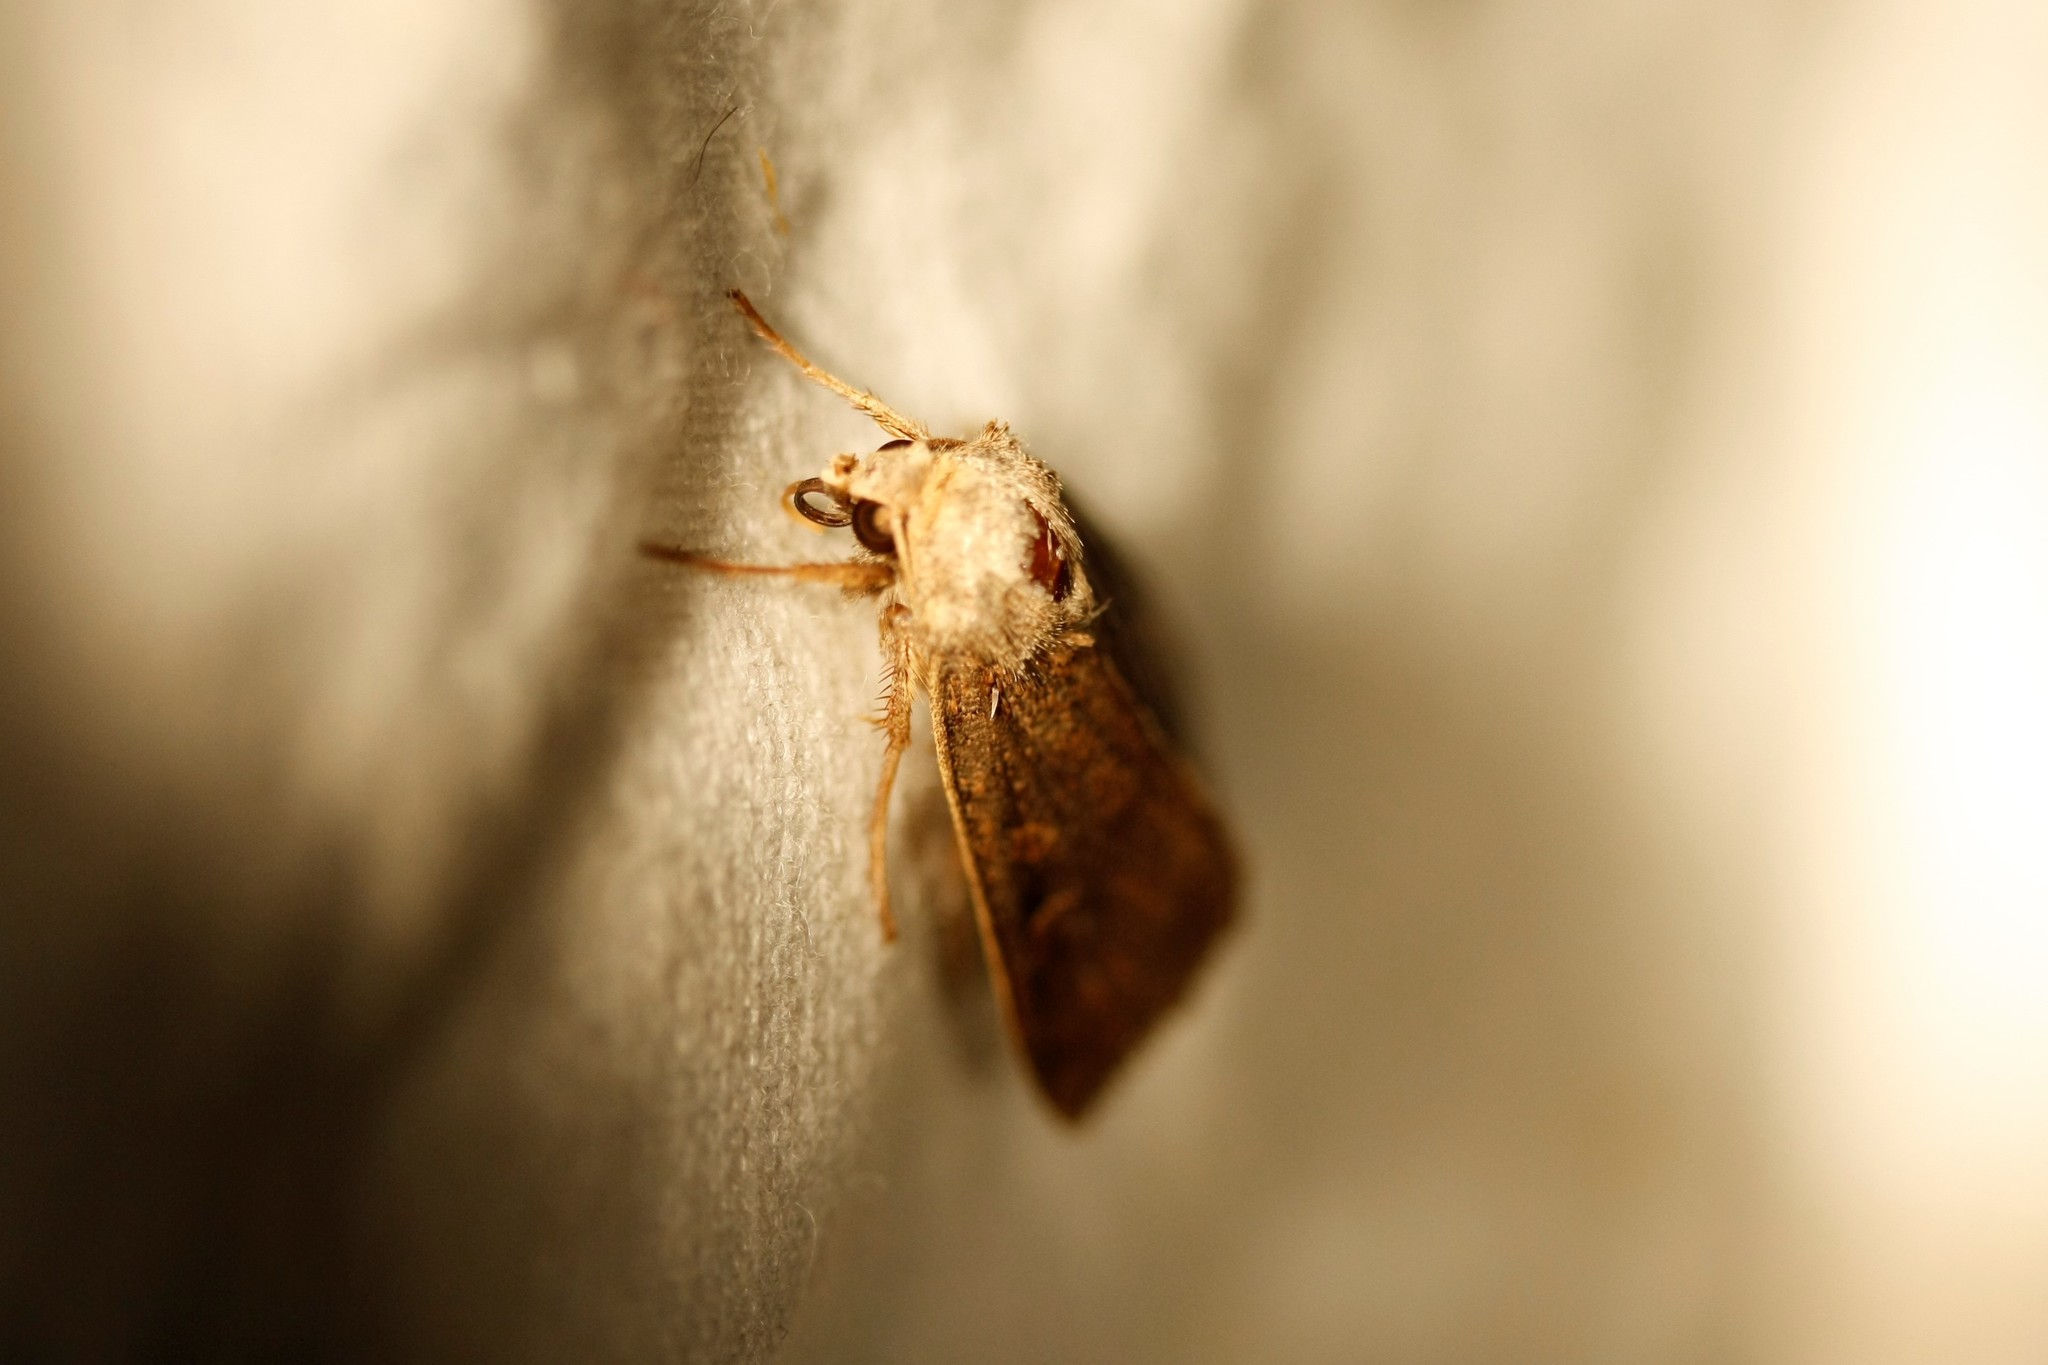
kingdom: Animalia
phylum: Arthropoda
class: Insecta
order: Lepidoptera
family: Noctuidae
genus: Xestia
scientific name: Xestia xanthographa
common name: Square-spot rustic
